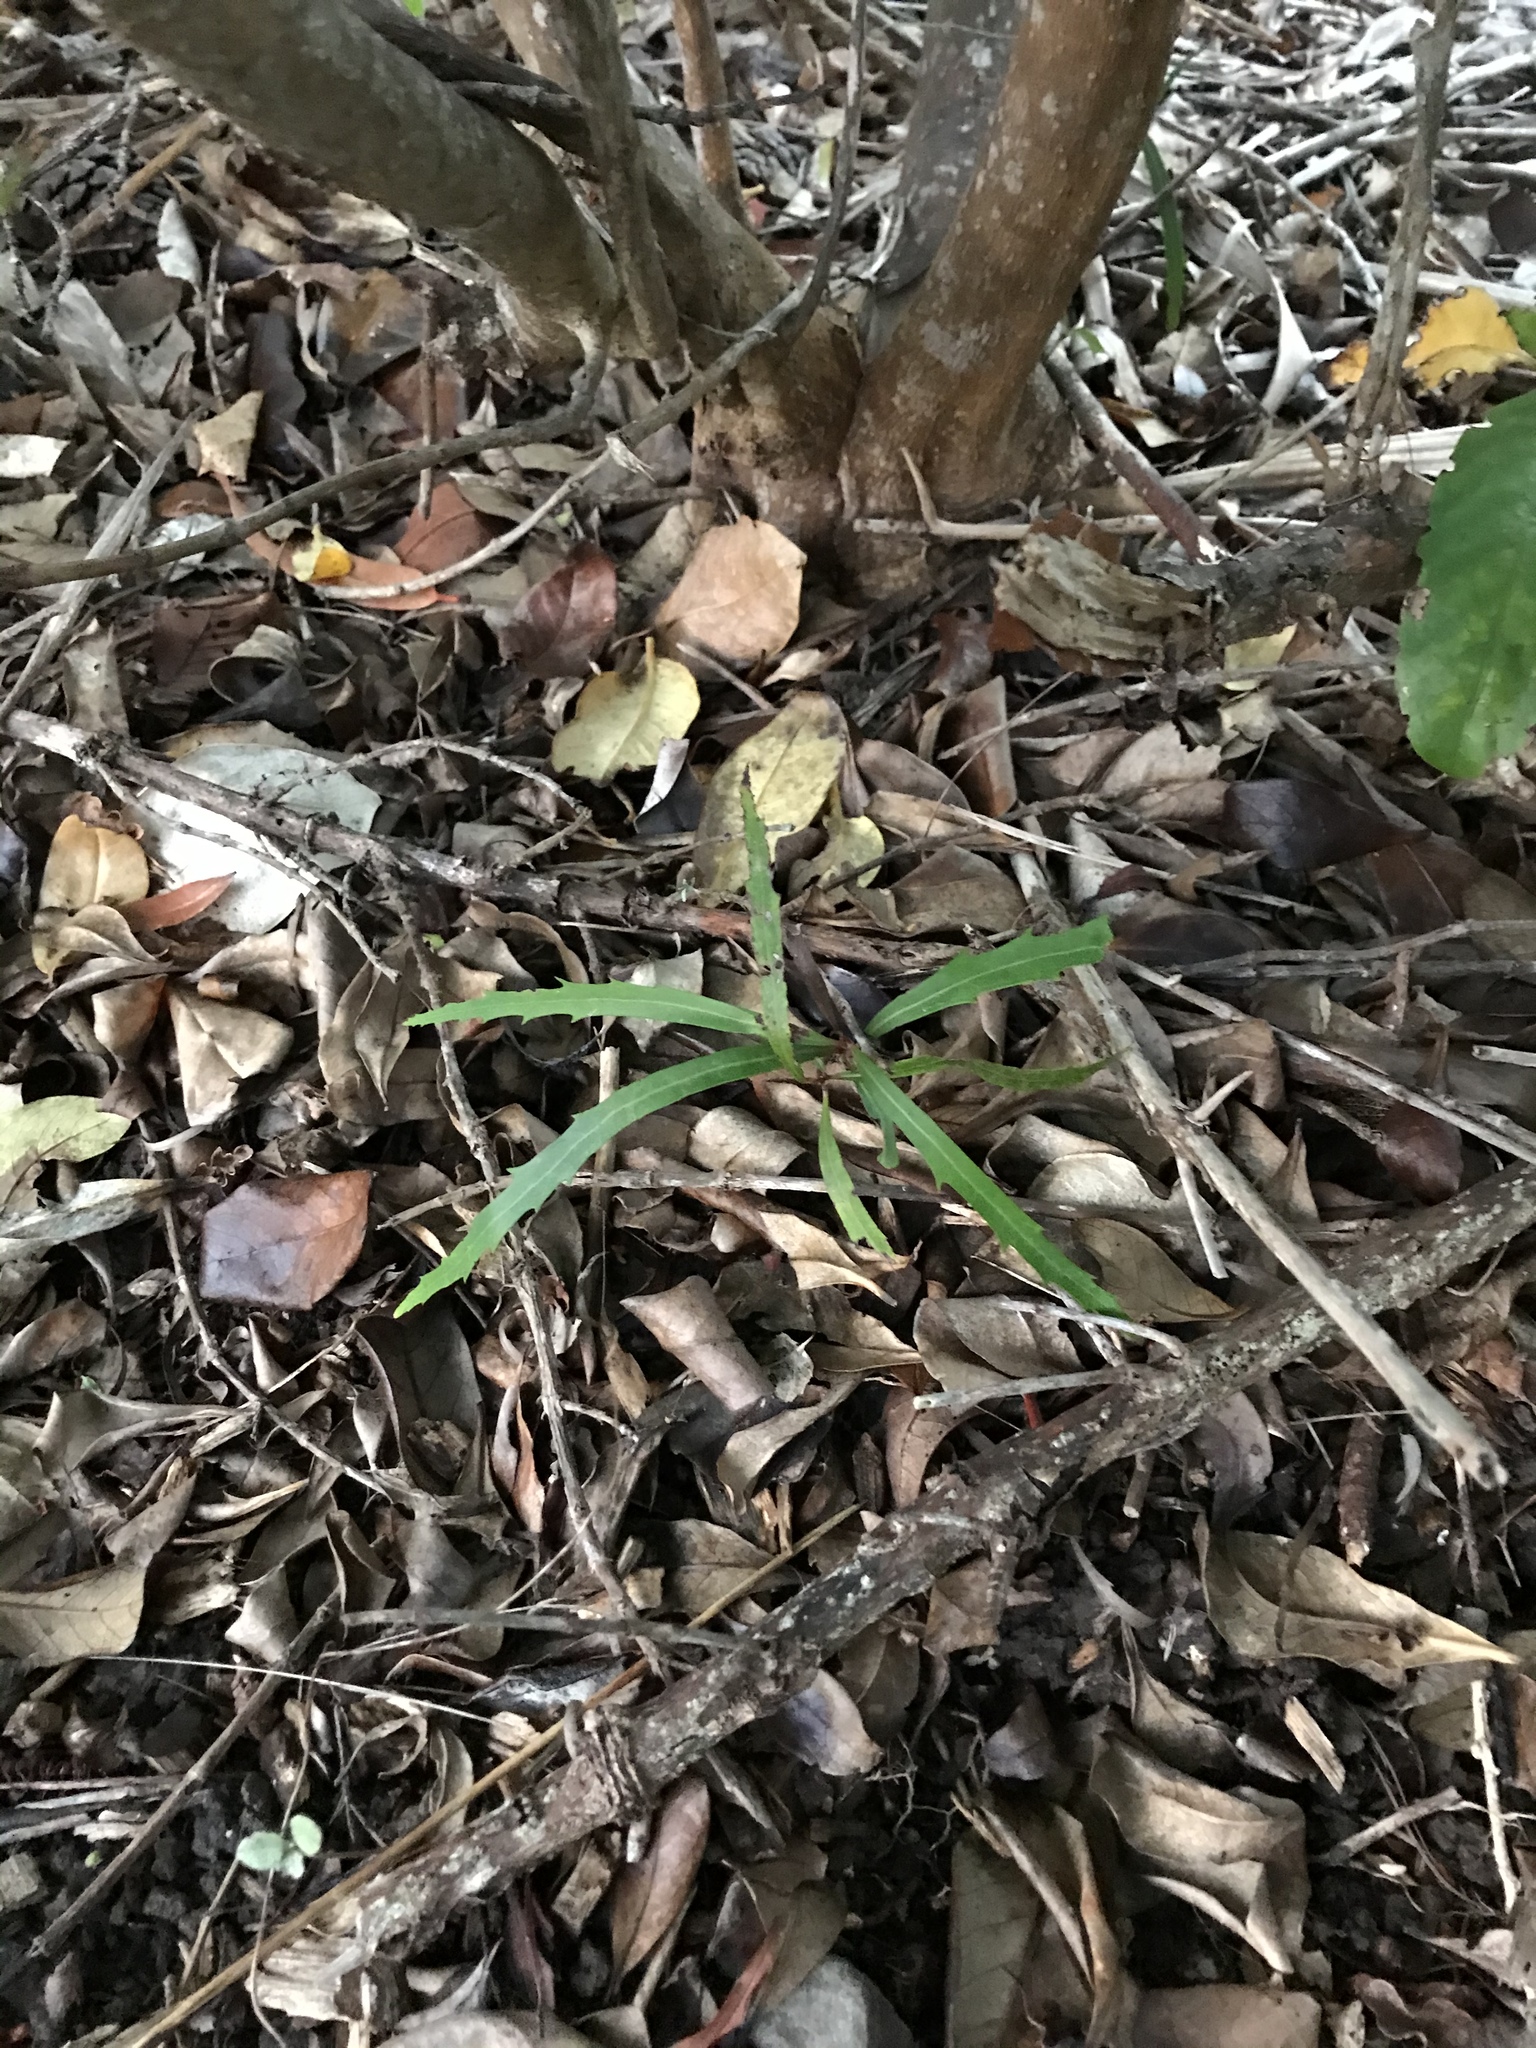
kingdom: Plantae
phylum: Tracheophyta
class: Magnoliopsida
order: Proteales
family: Proteaceae
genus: Lomatia
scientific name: Lomatia myricoides
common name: Longleaf lomatia
